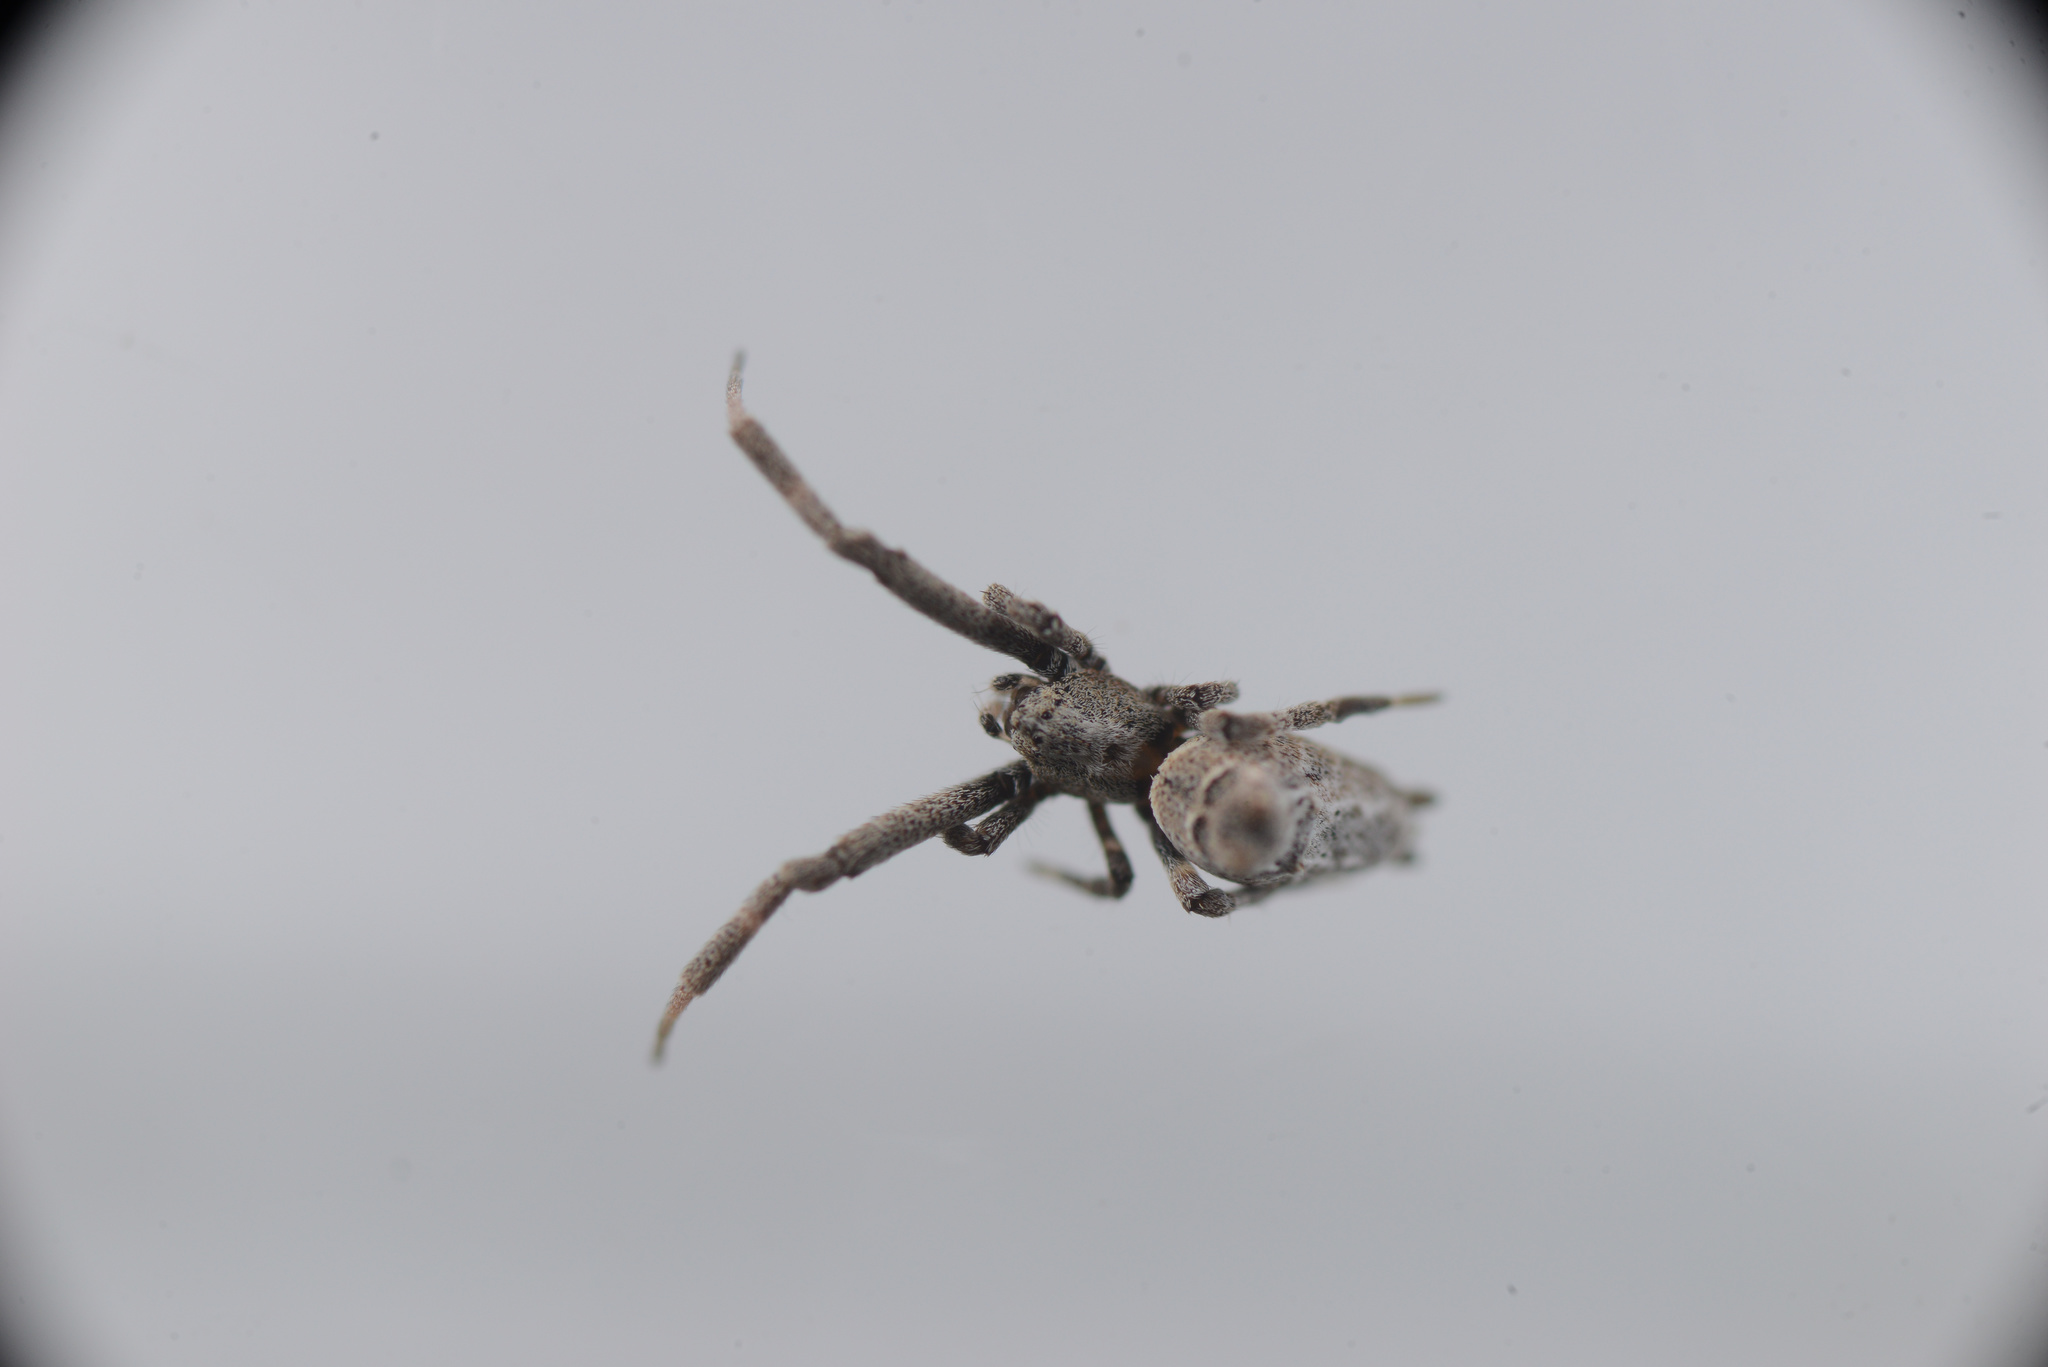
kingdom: Animalia
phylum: Arthropoda
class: Arachnida
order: Araneae
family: Uloboridae
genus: Philoponella
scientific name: Philoponella congregabilis
